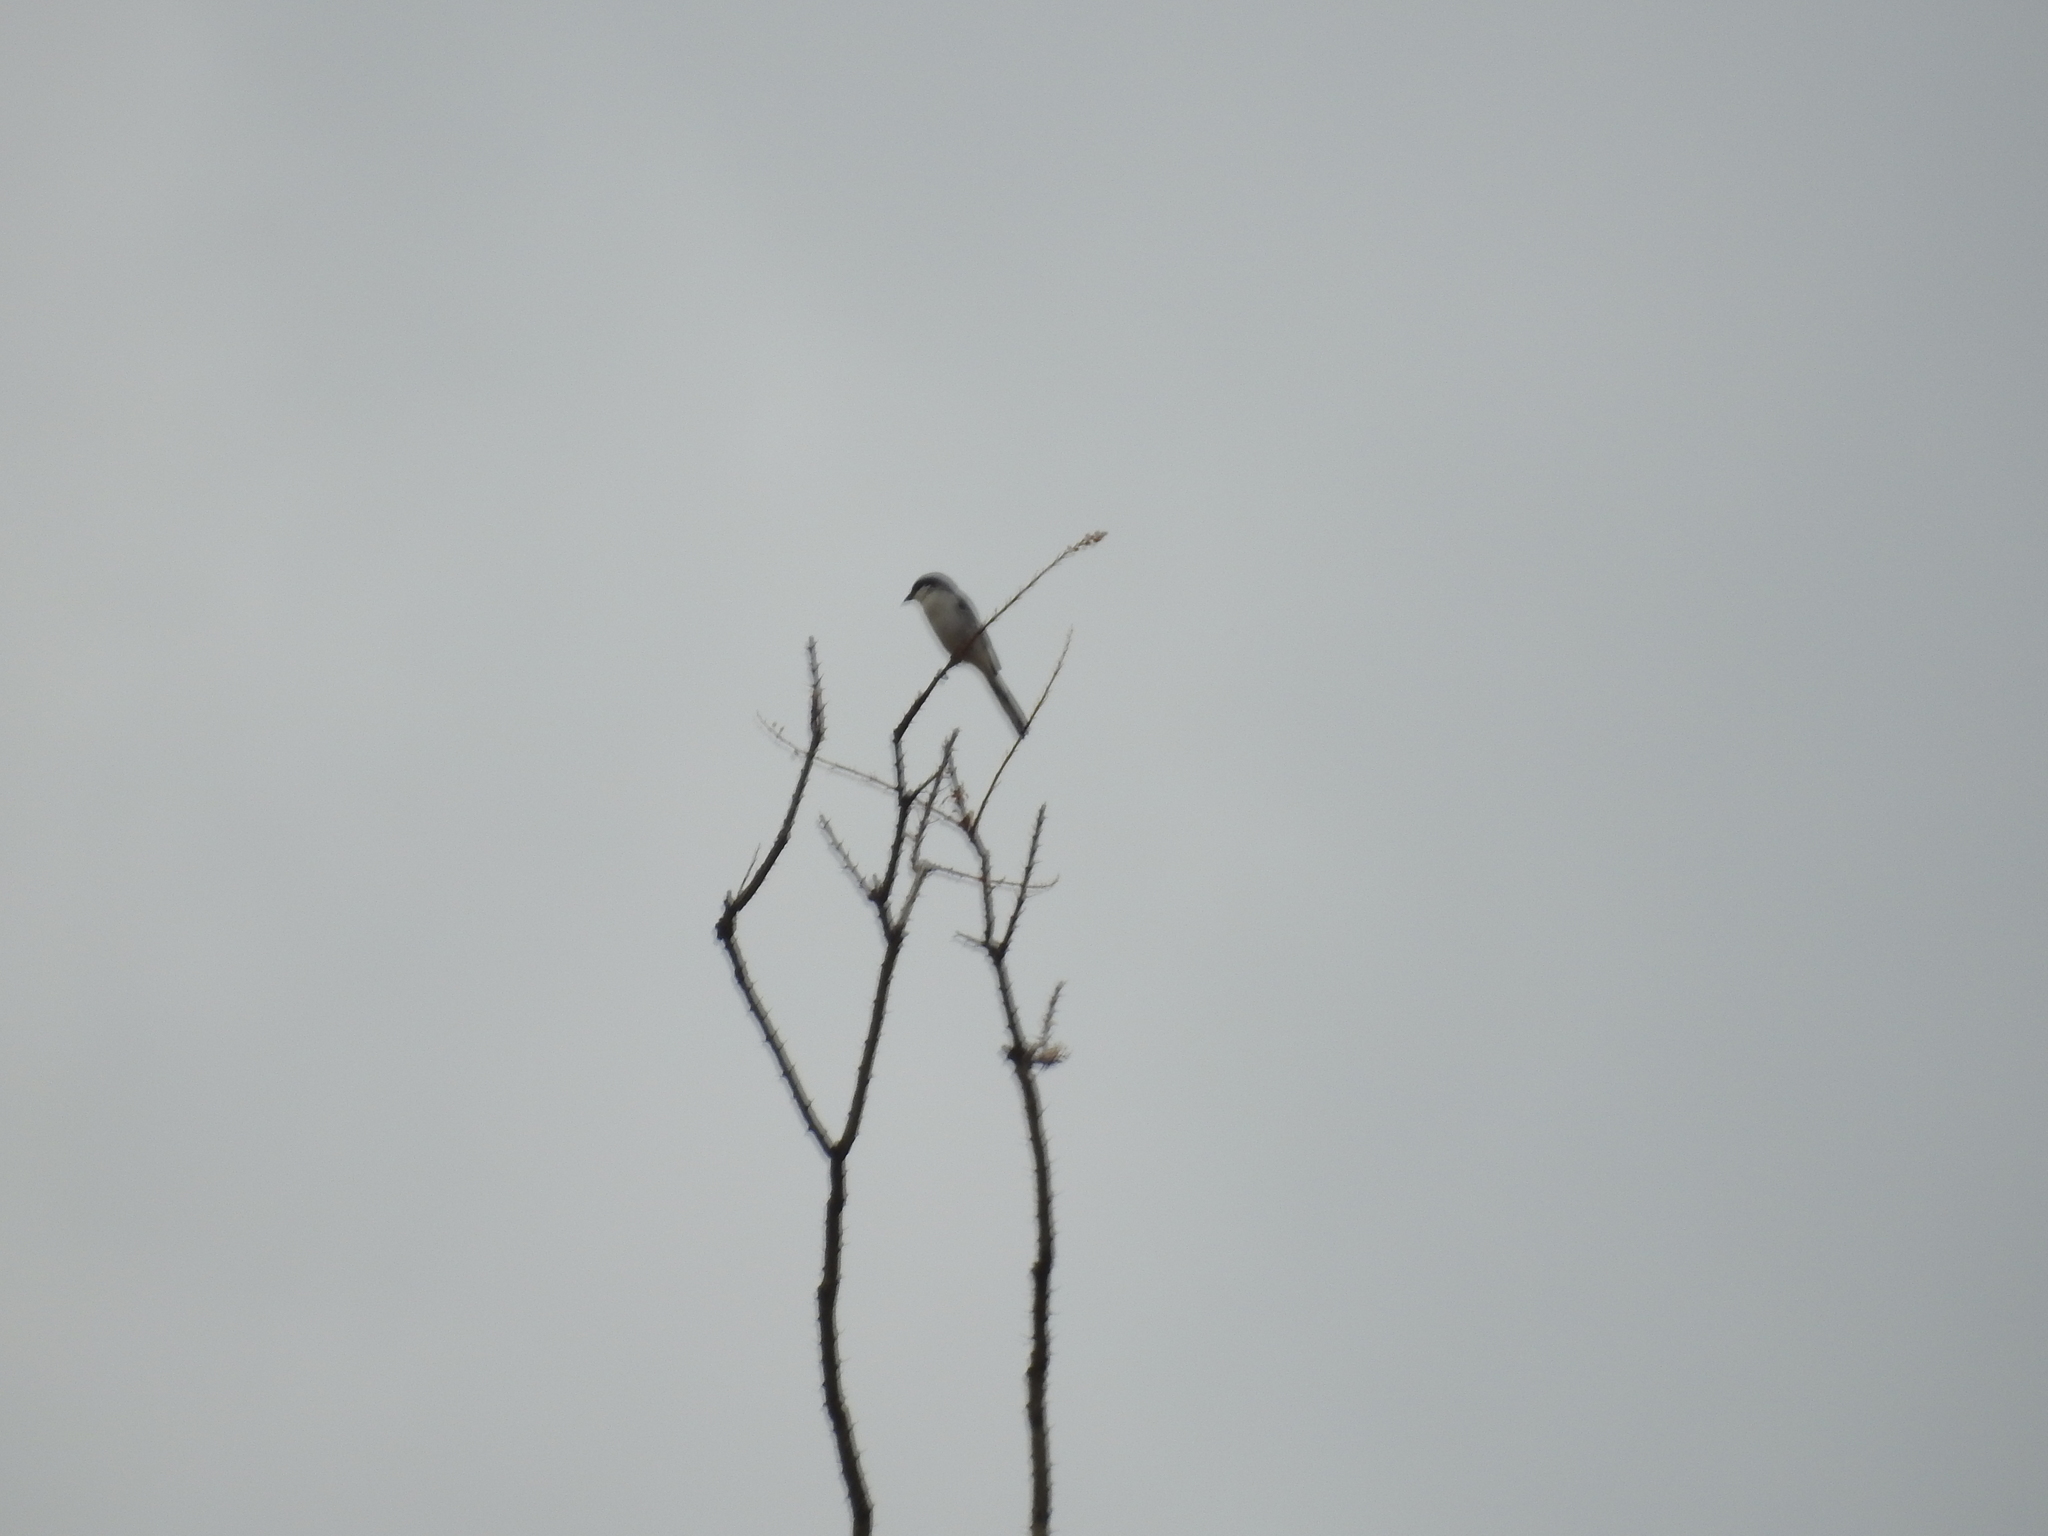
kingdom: Animalia
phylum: Chordata
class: Aves
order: Passeriformes
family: Laniidae
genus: Lanius
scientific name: Lanius ludovicianus
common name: Loggerhead shrike
